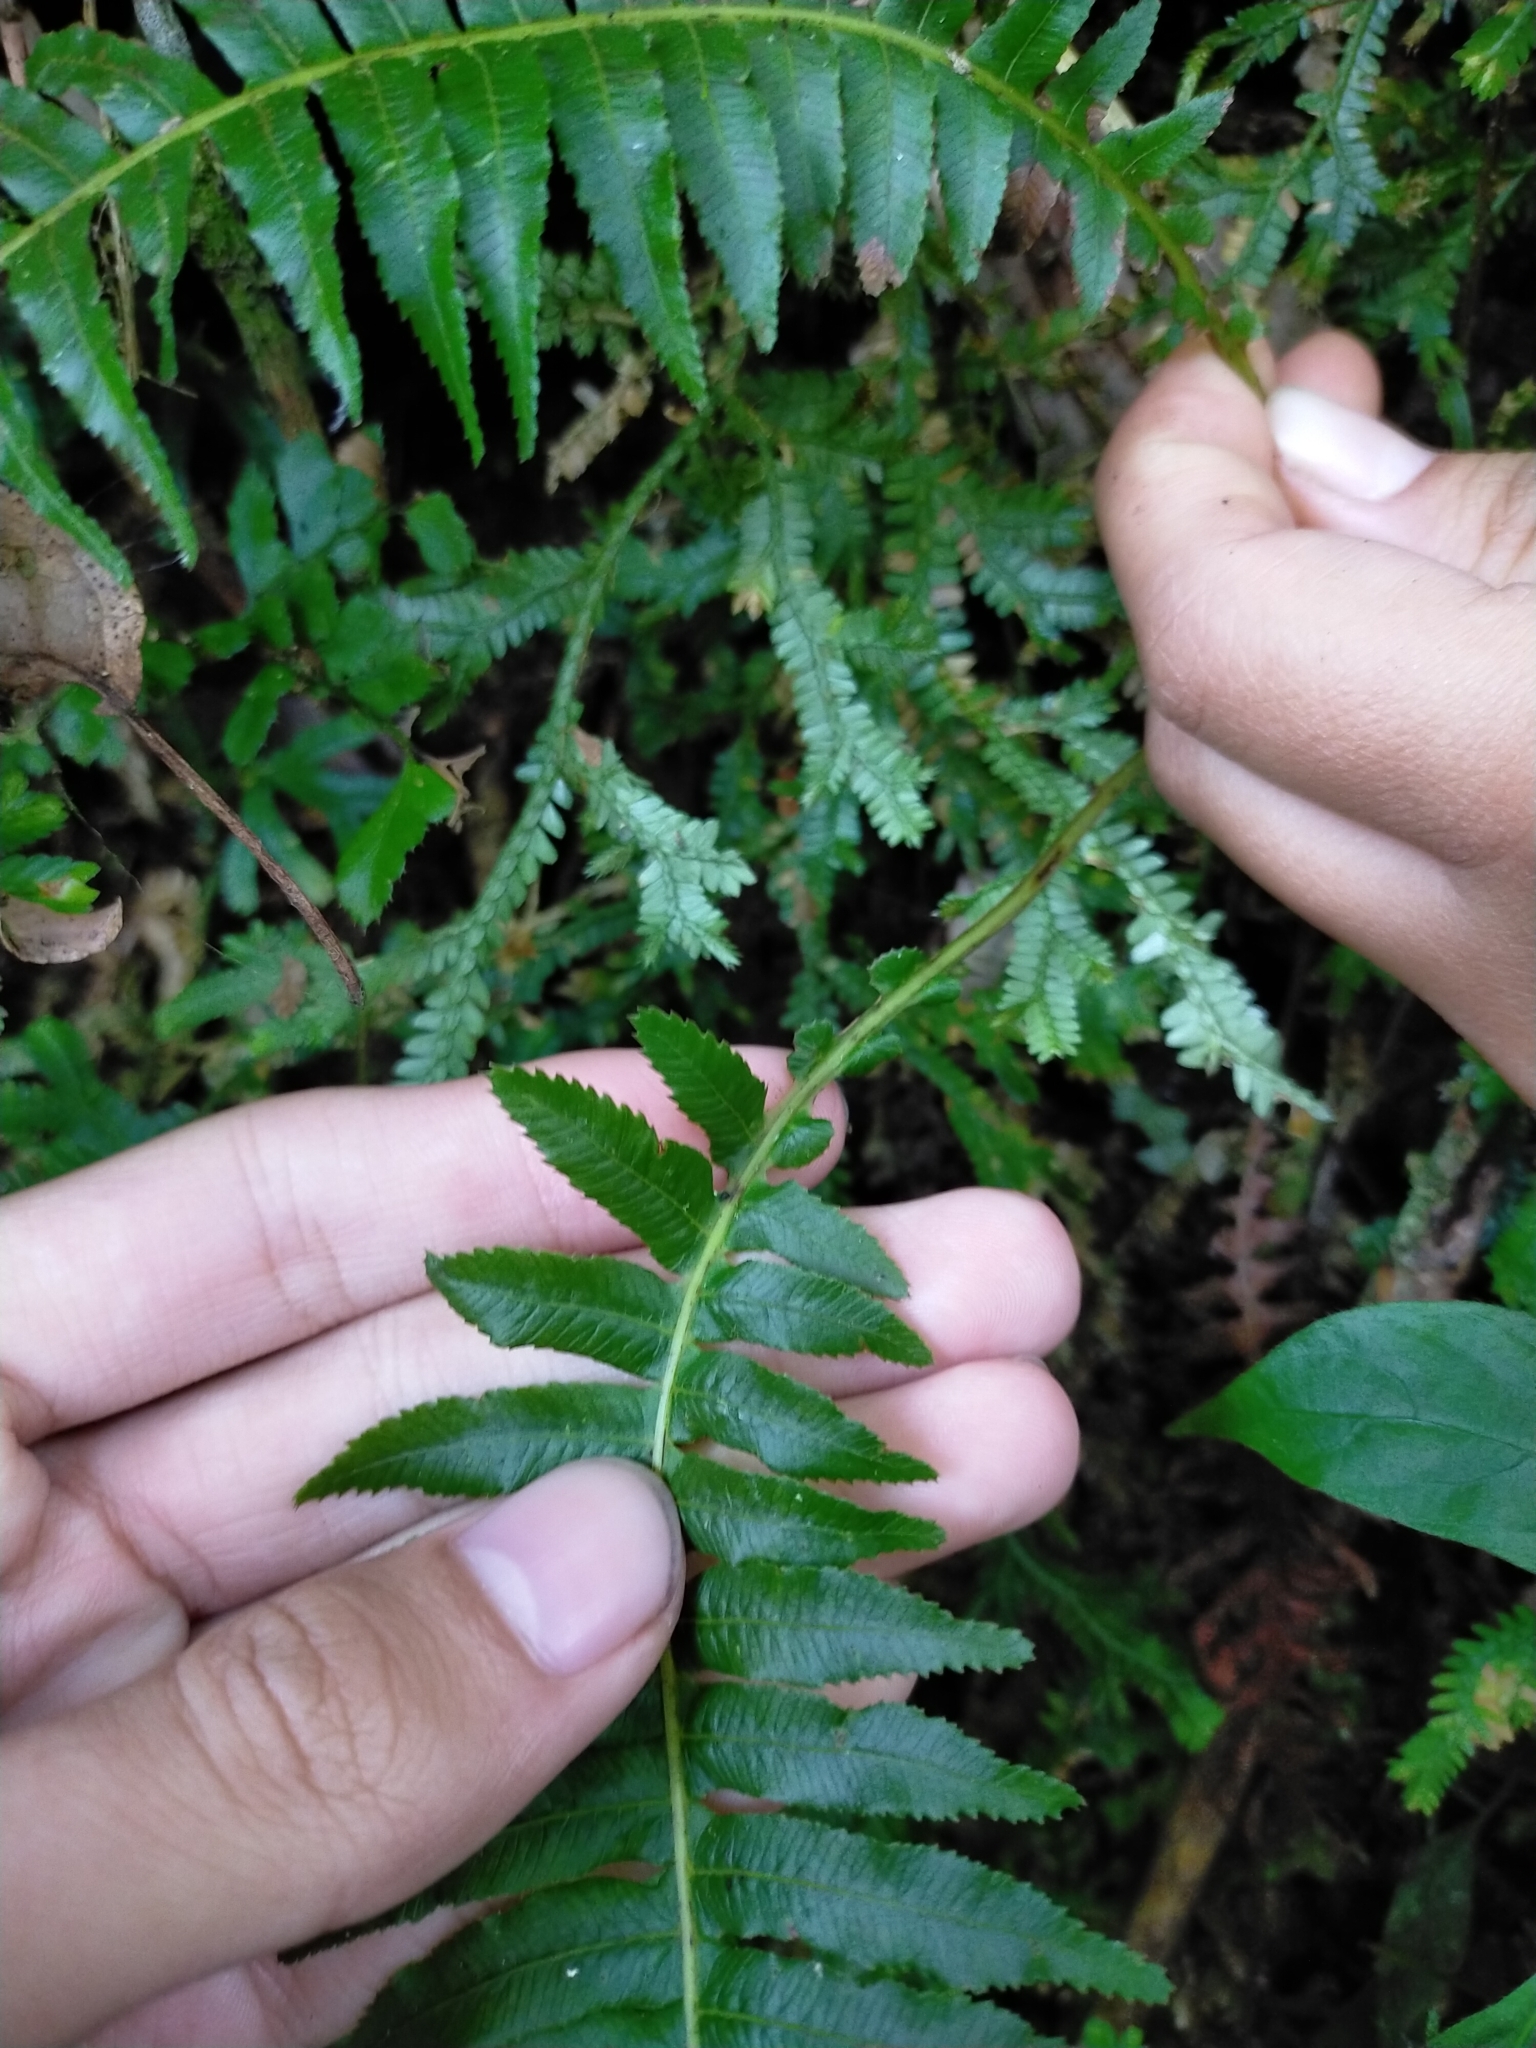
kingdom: Plantae
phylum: Tracheophyta
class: Polypodiopsida
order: Cyatheales
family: Plagiogyriaceae
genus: Plagiogyria
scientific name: Plagiogyria stenoptera
